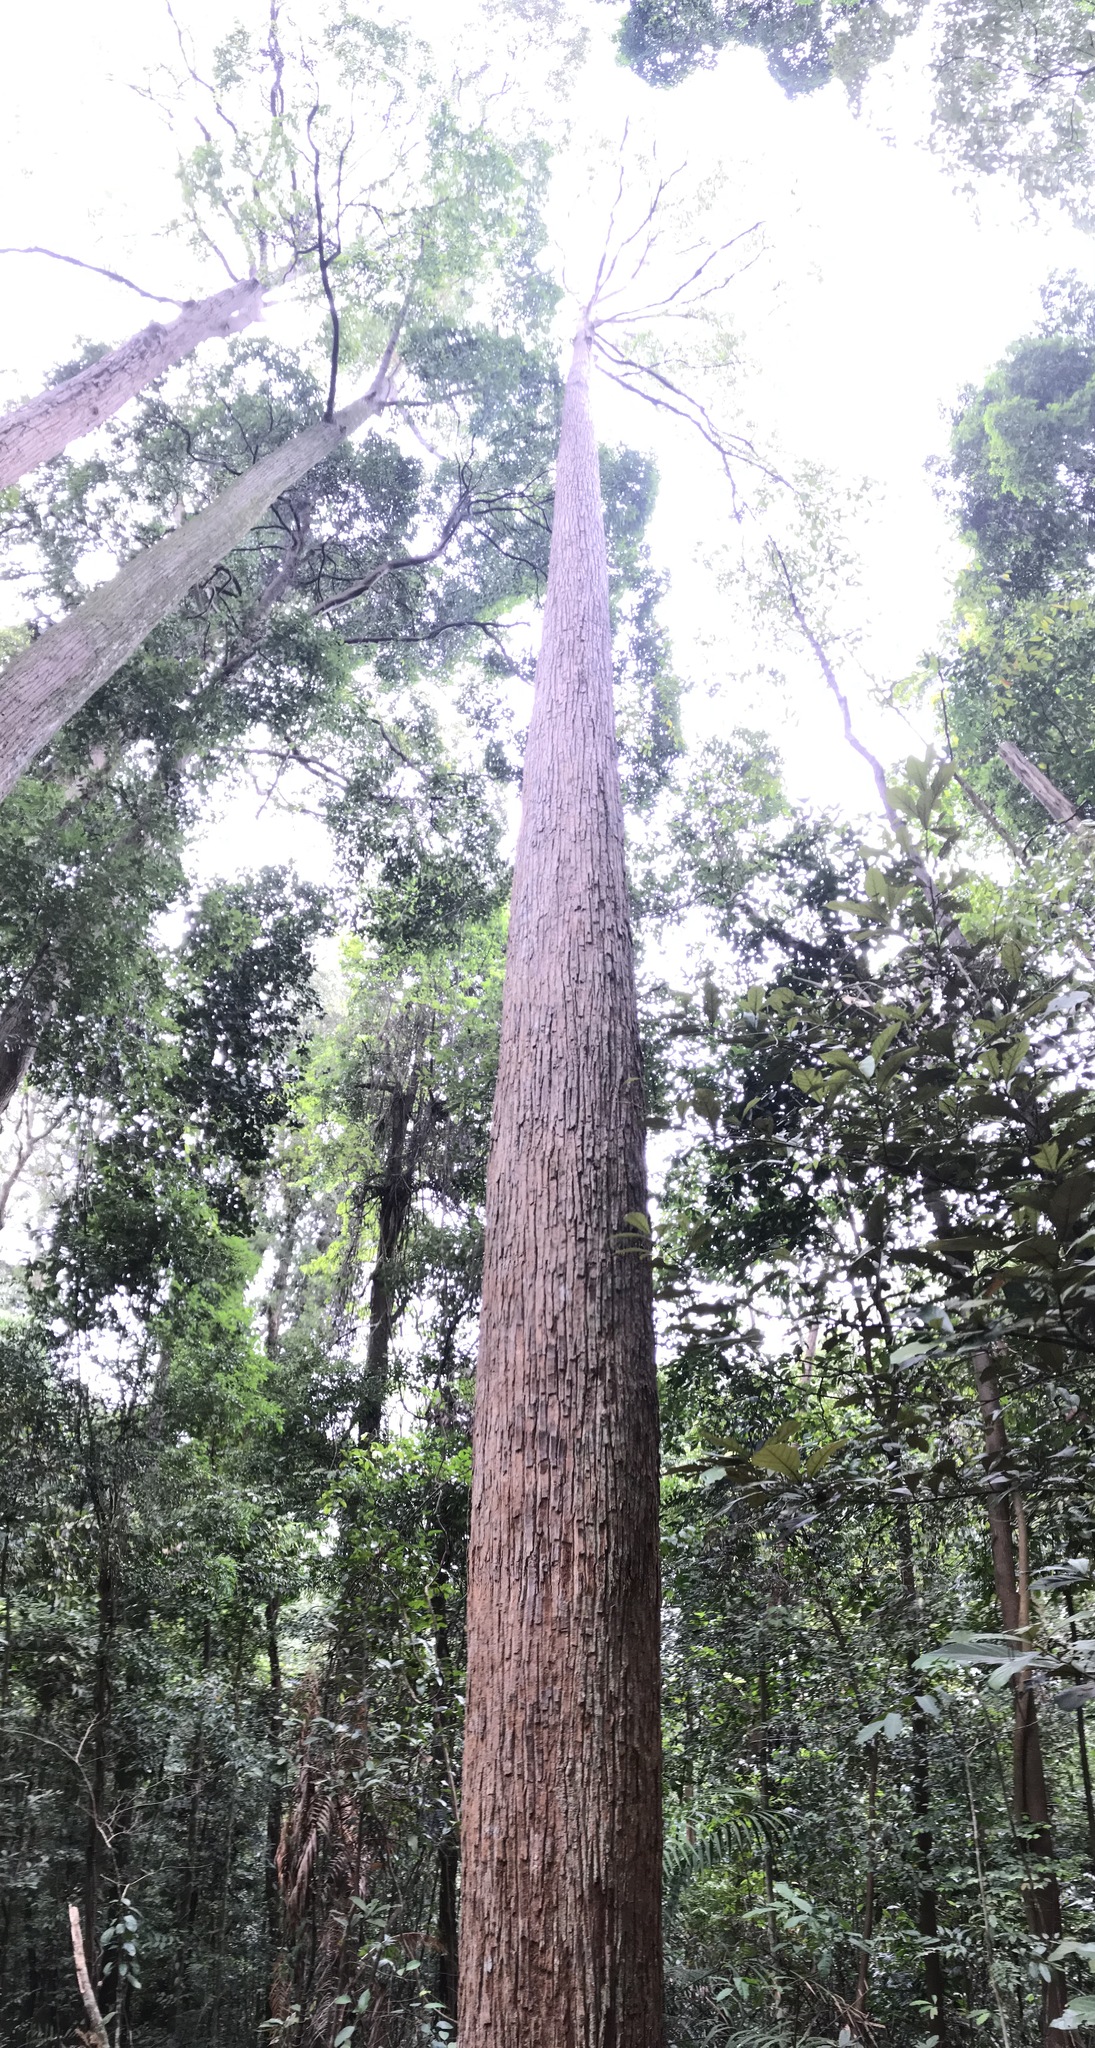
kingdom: Plantae
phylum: Tracheophyta
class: Magnoliopsida
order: Malvales
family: Dipterocarpaceae
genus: Shorea
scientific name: Shorea curtisii
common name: Dark red meranti
